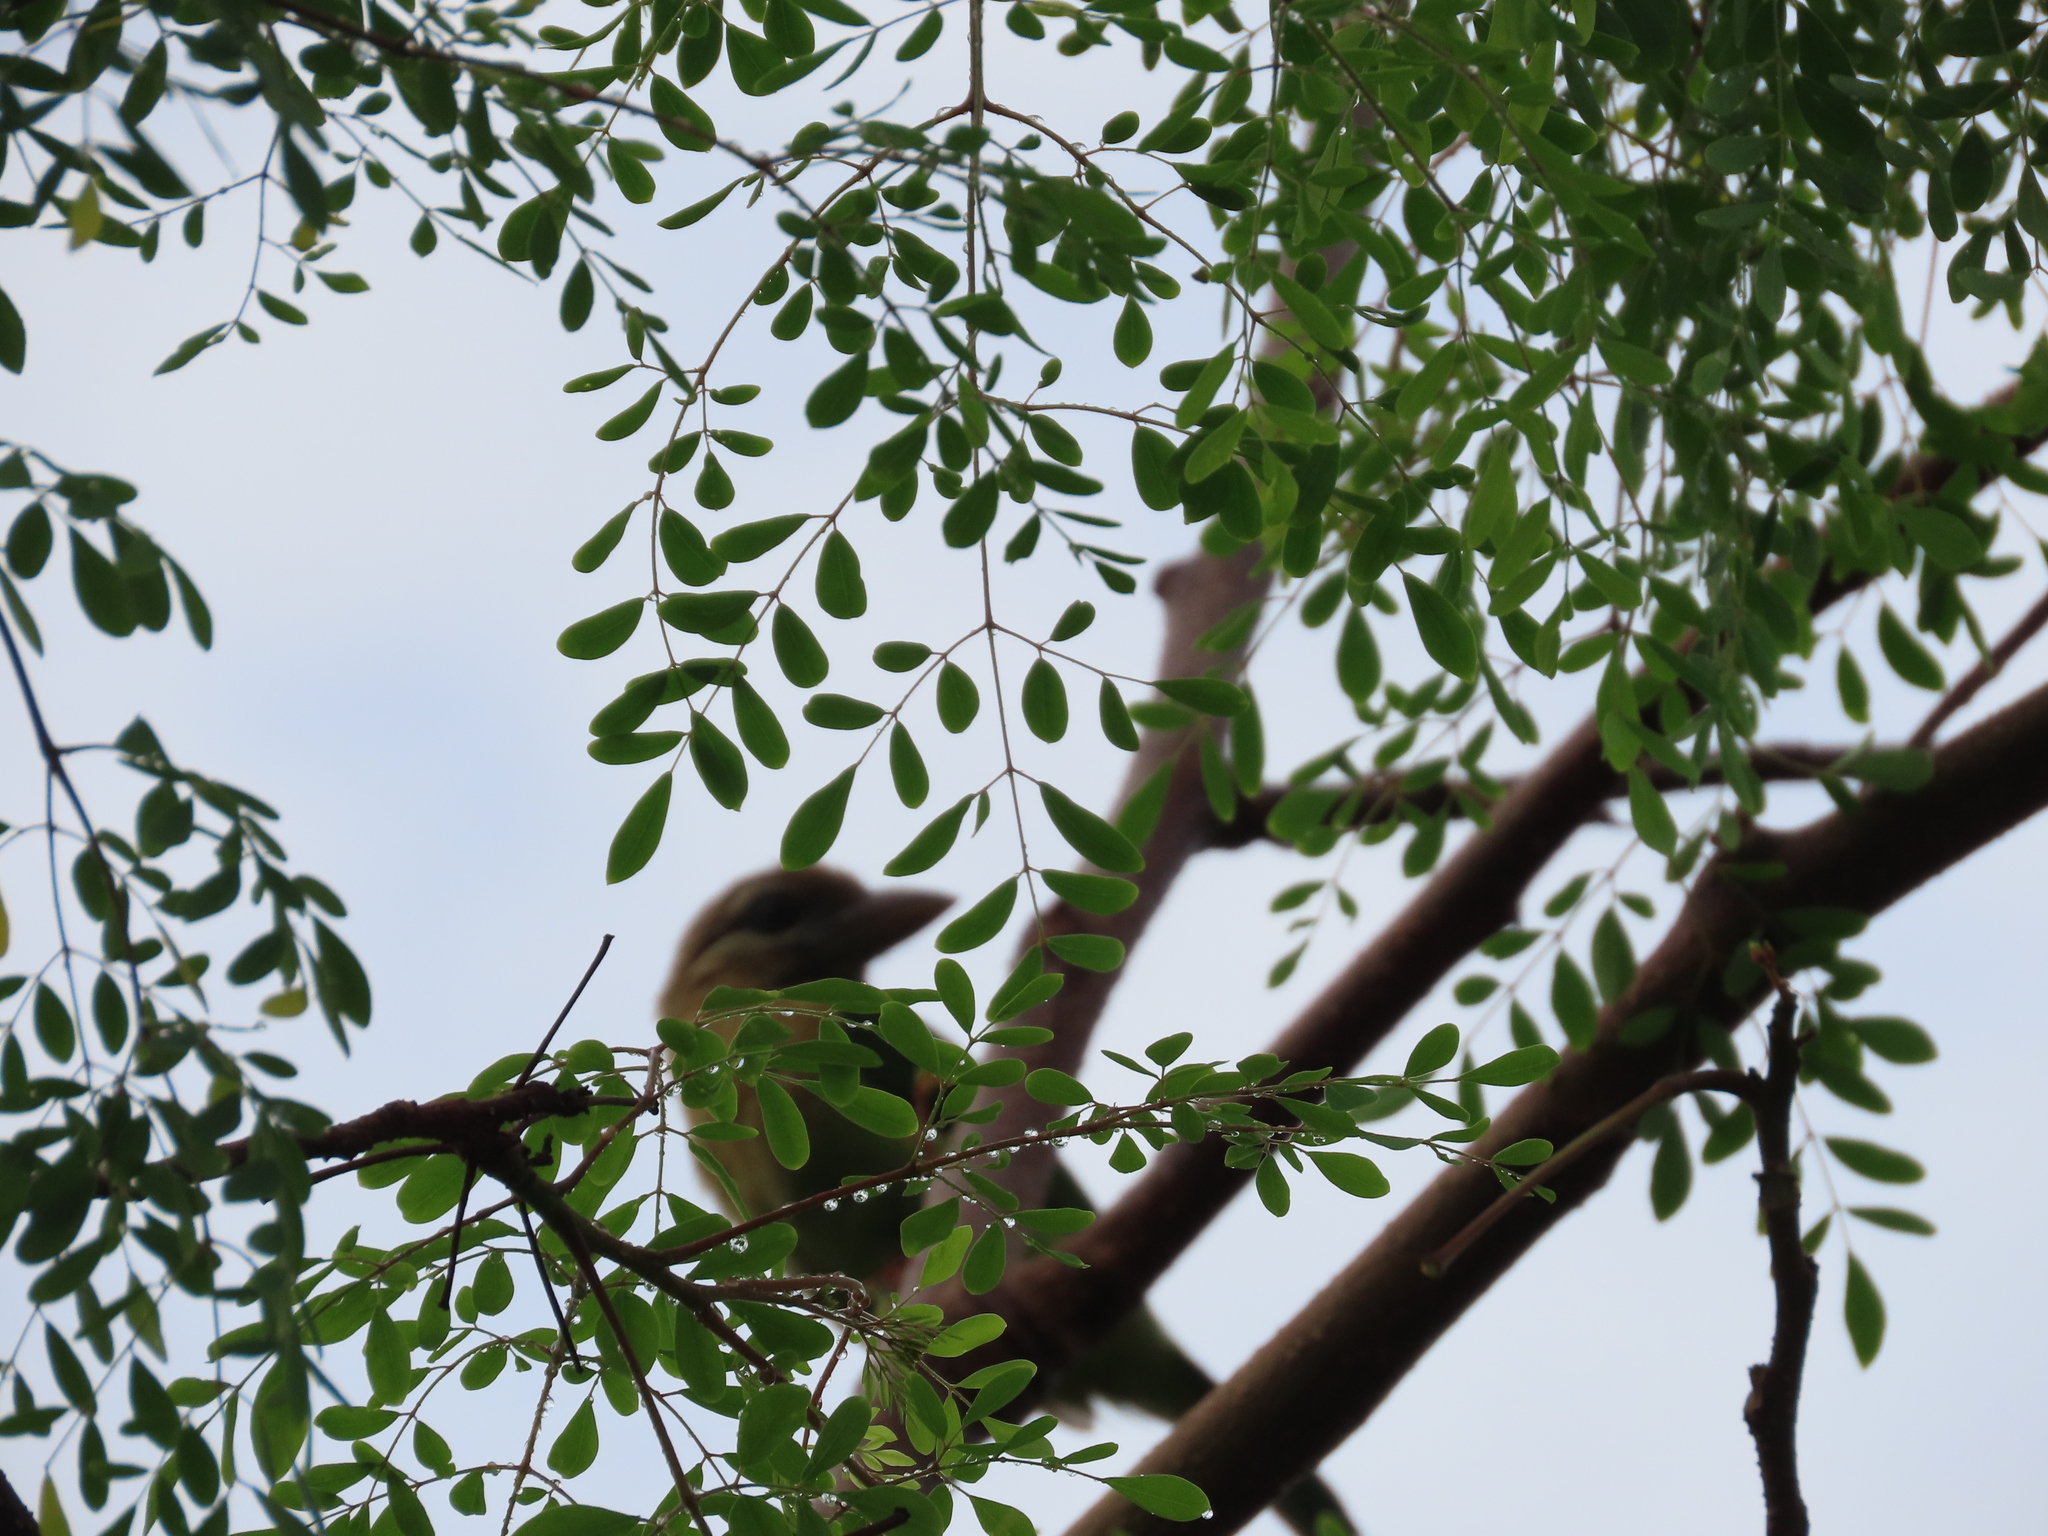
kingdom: Animalia
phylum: Chordata
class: Aves
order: Piciformes
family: Megalaimidae
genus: Psilopogon
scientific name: Psilopogon viridis
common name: White-cheeked barbet
